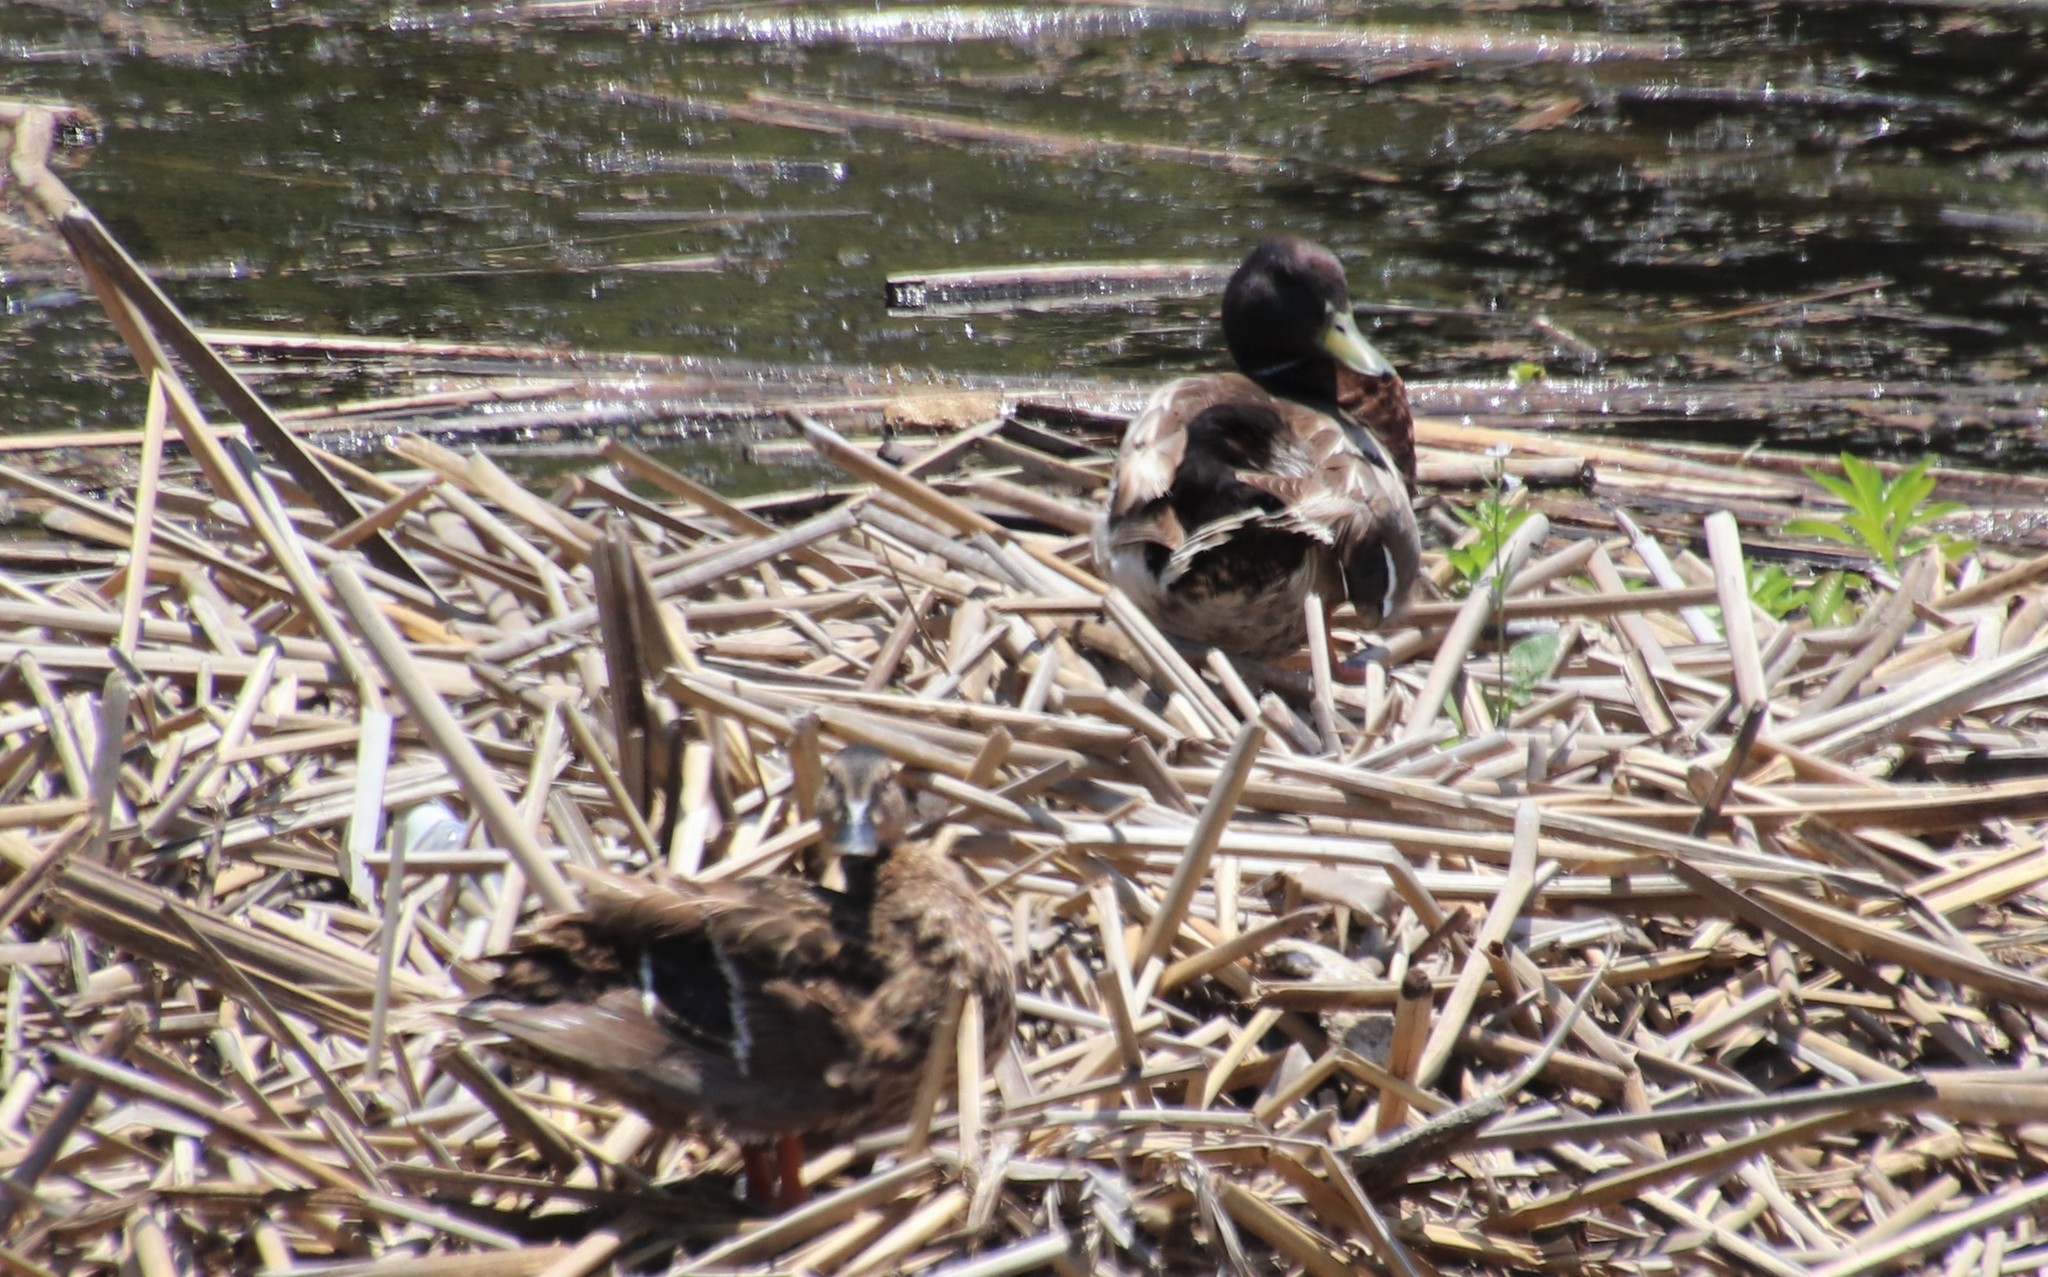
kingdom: Animalia
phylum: Chordata
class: Aves
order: Anseriformes
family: Anatidae
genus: Anas
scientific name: Anas platyrhynchos
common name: Mallard
